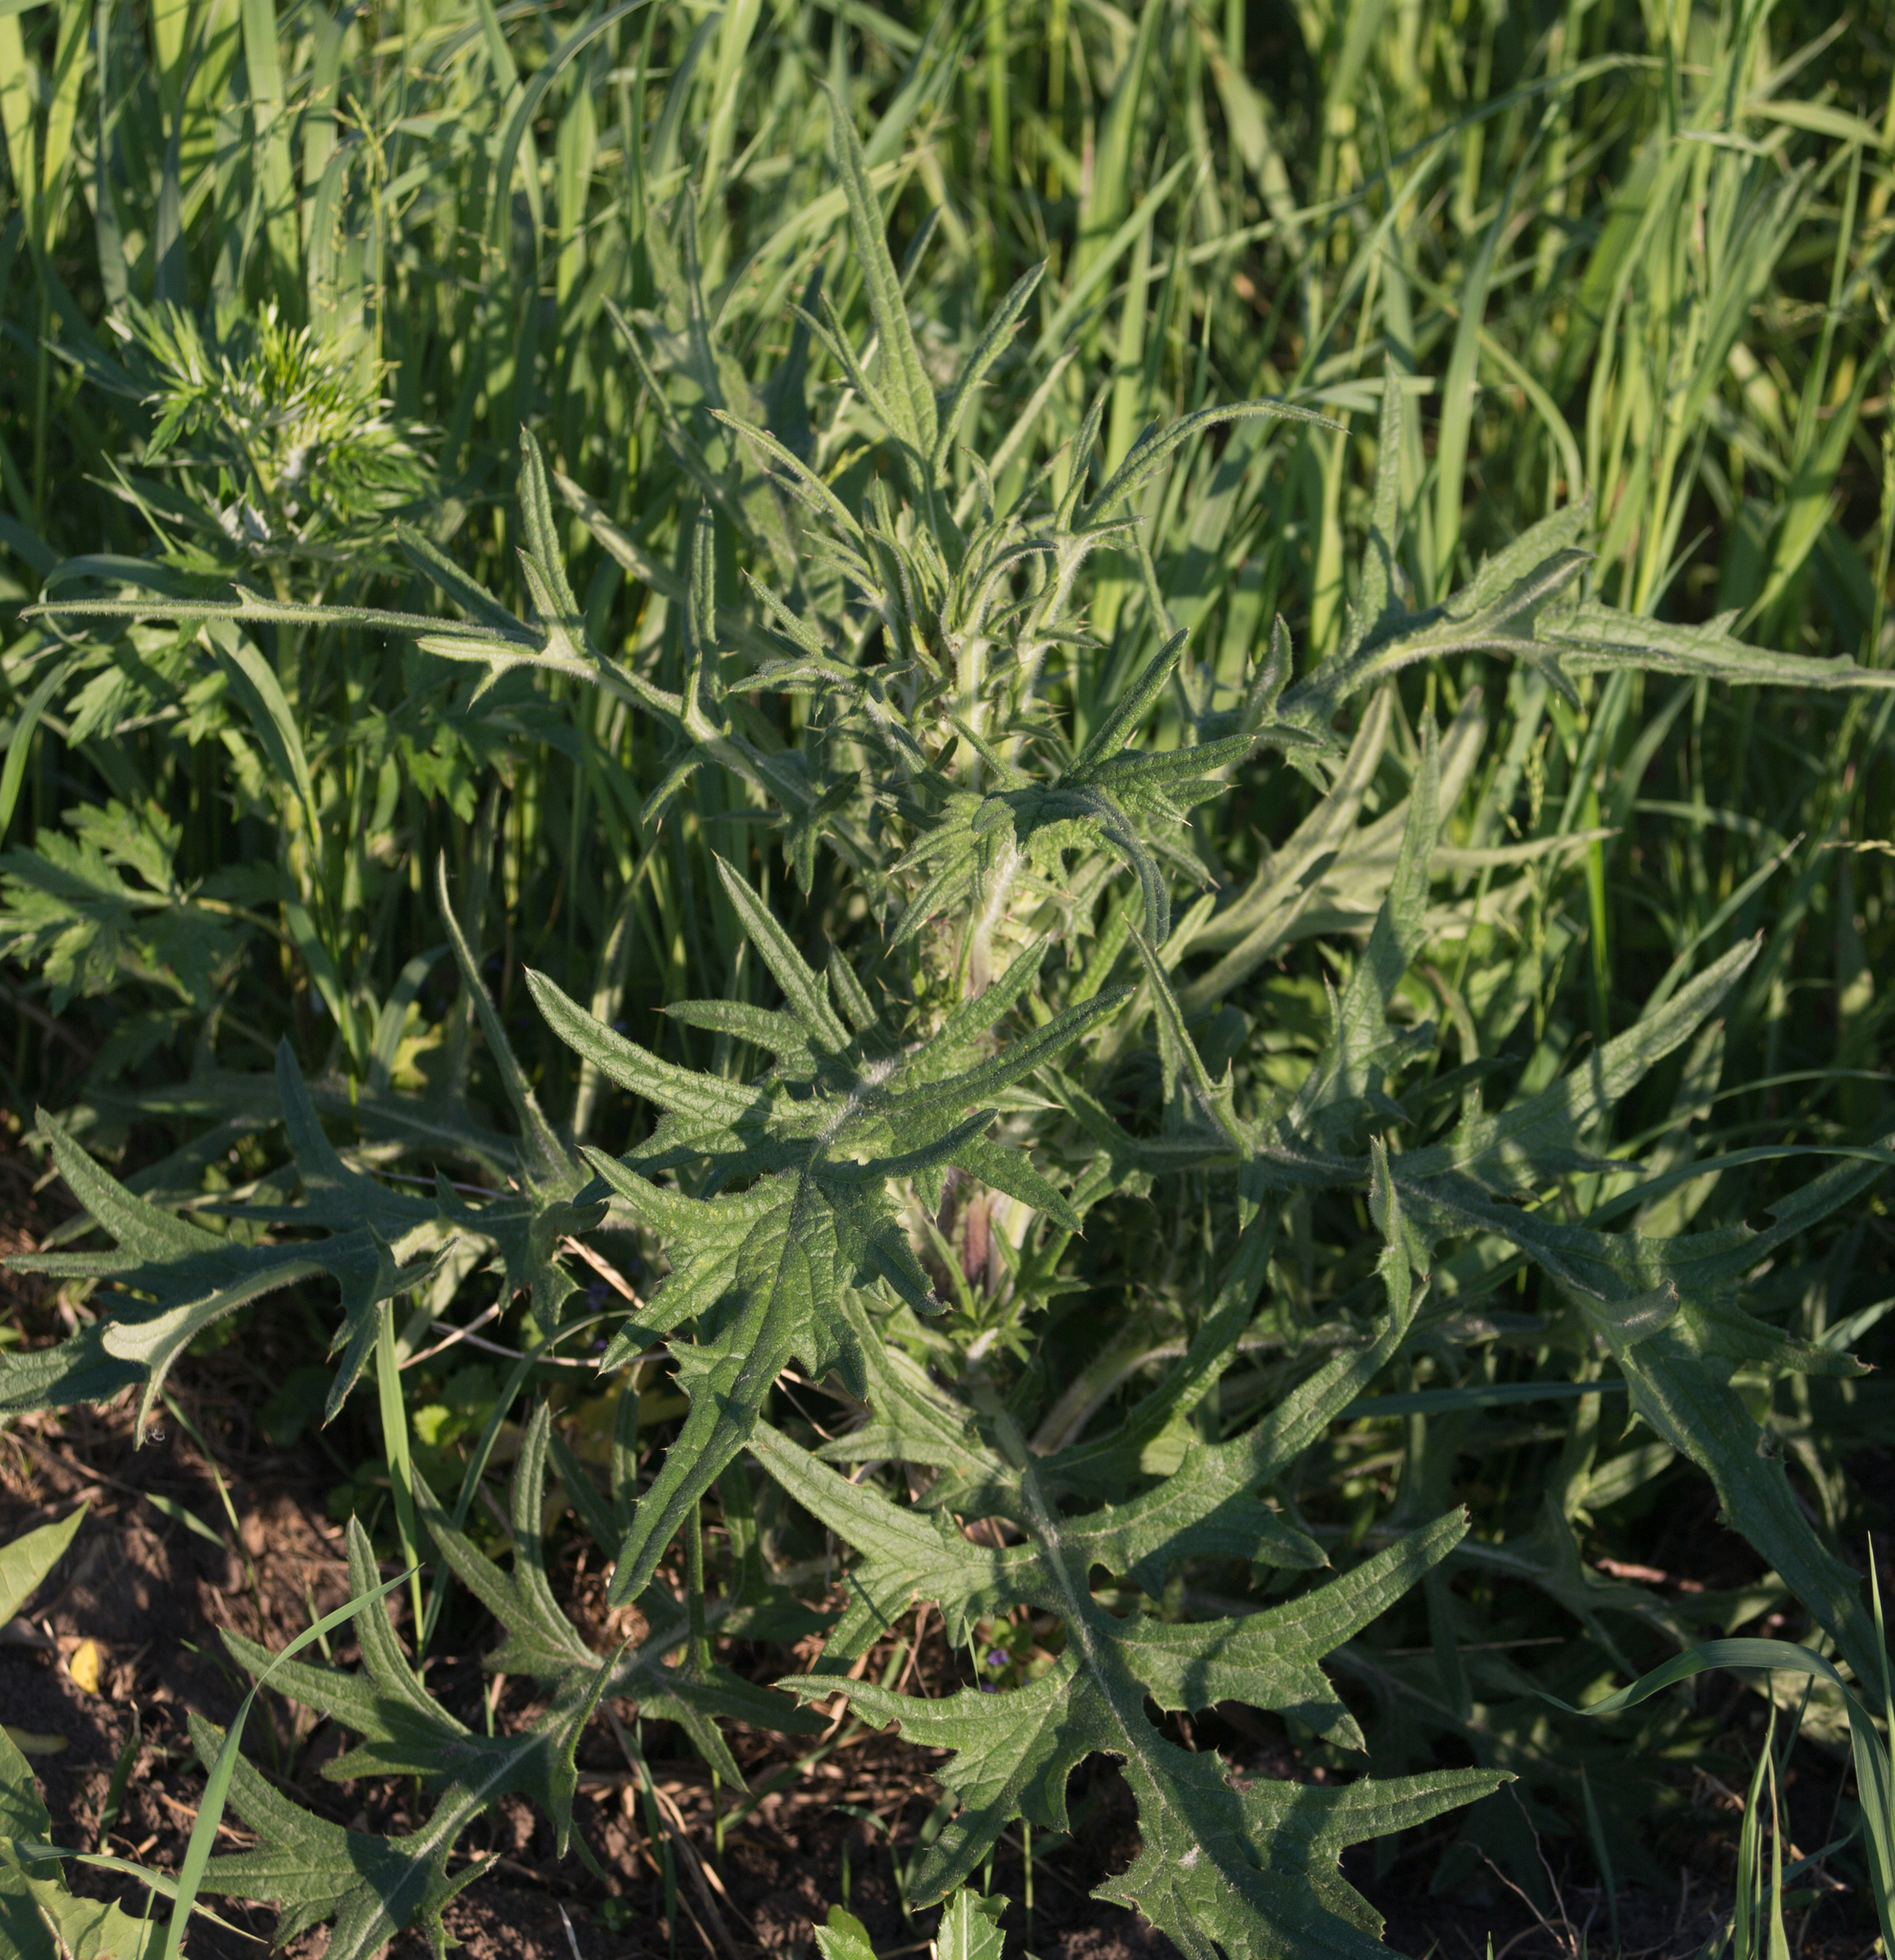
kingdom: Plantae
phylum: Tracheophyta
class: Magnoliopsida
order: Asterales
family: Asteraceae
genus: Cirsium
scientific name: Cirsium vulgare
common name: Bull thistle
